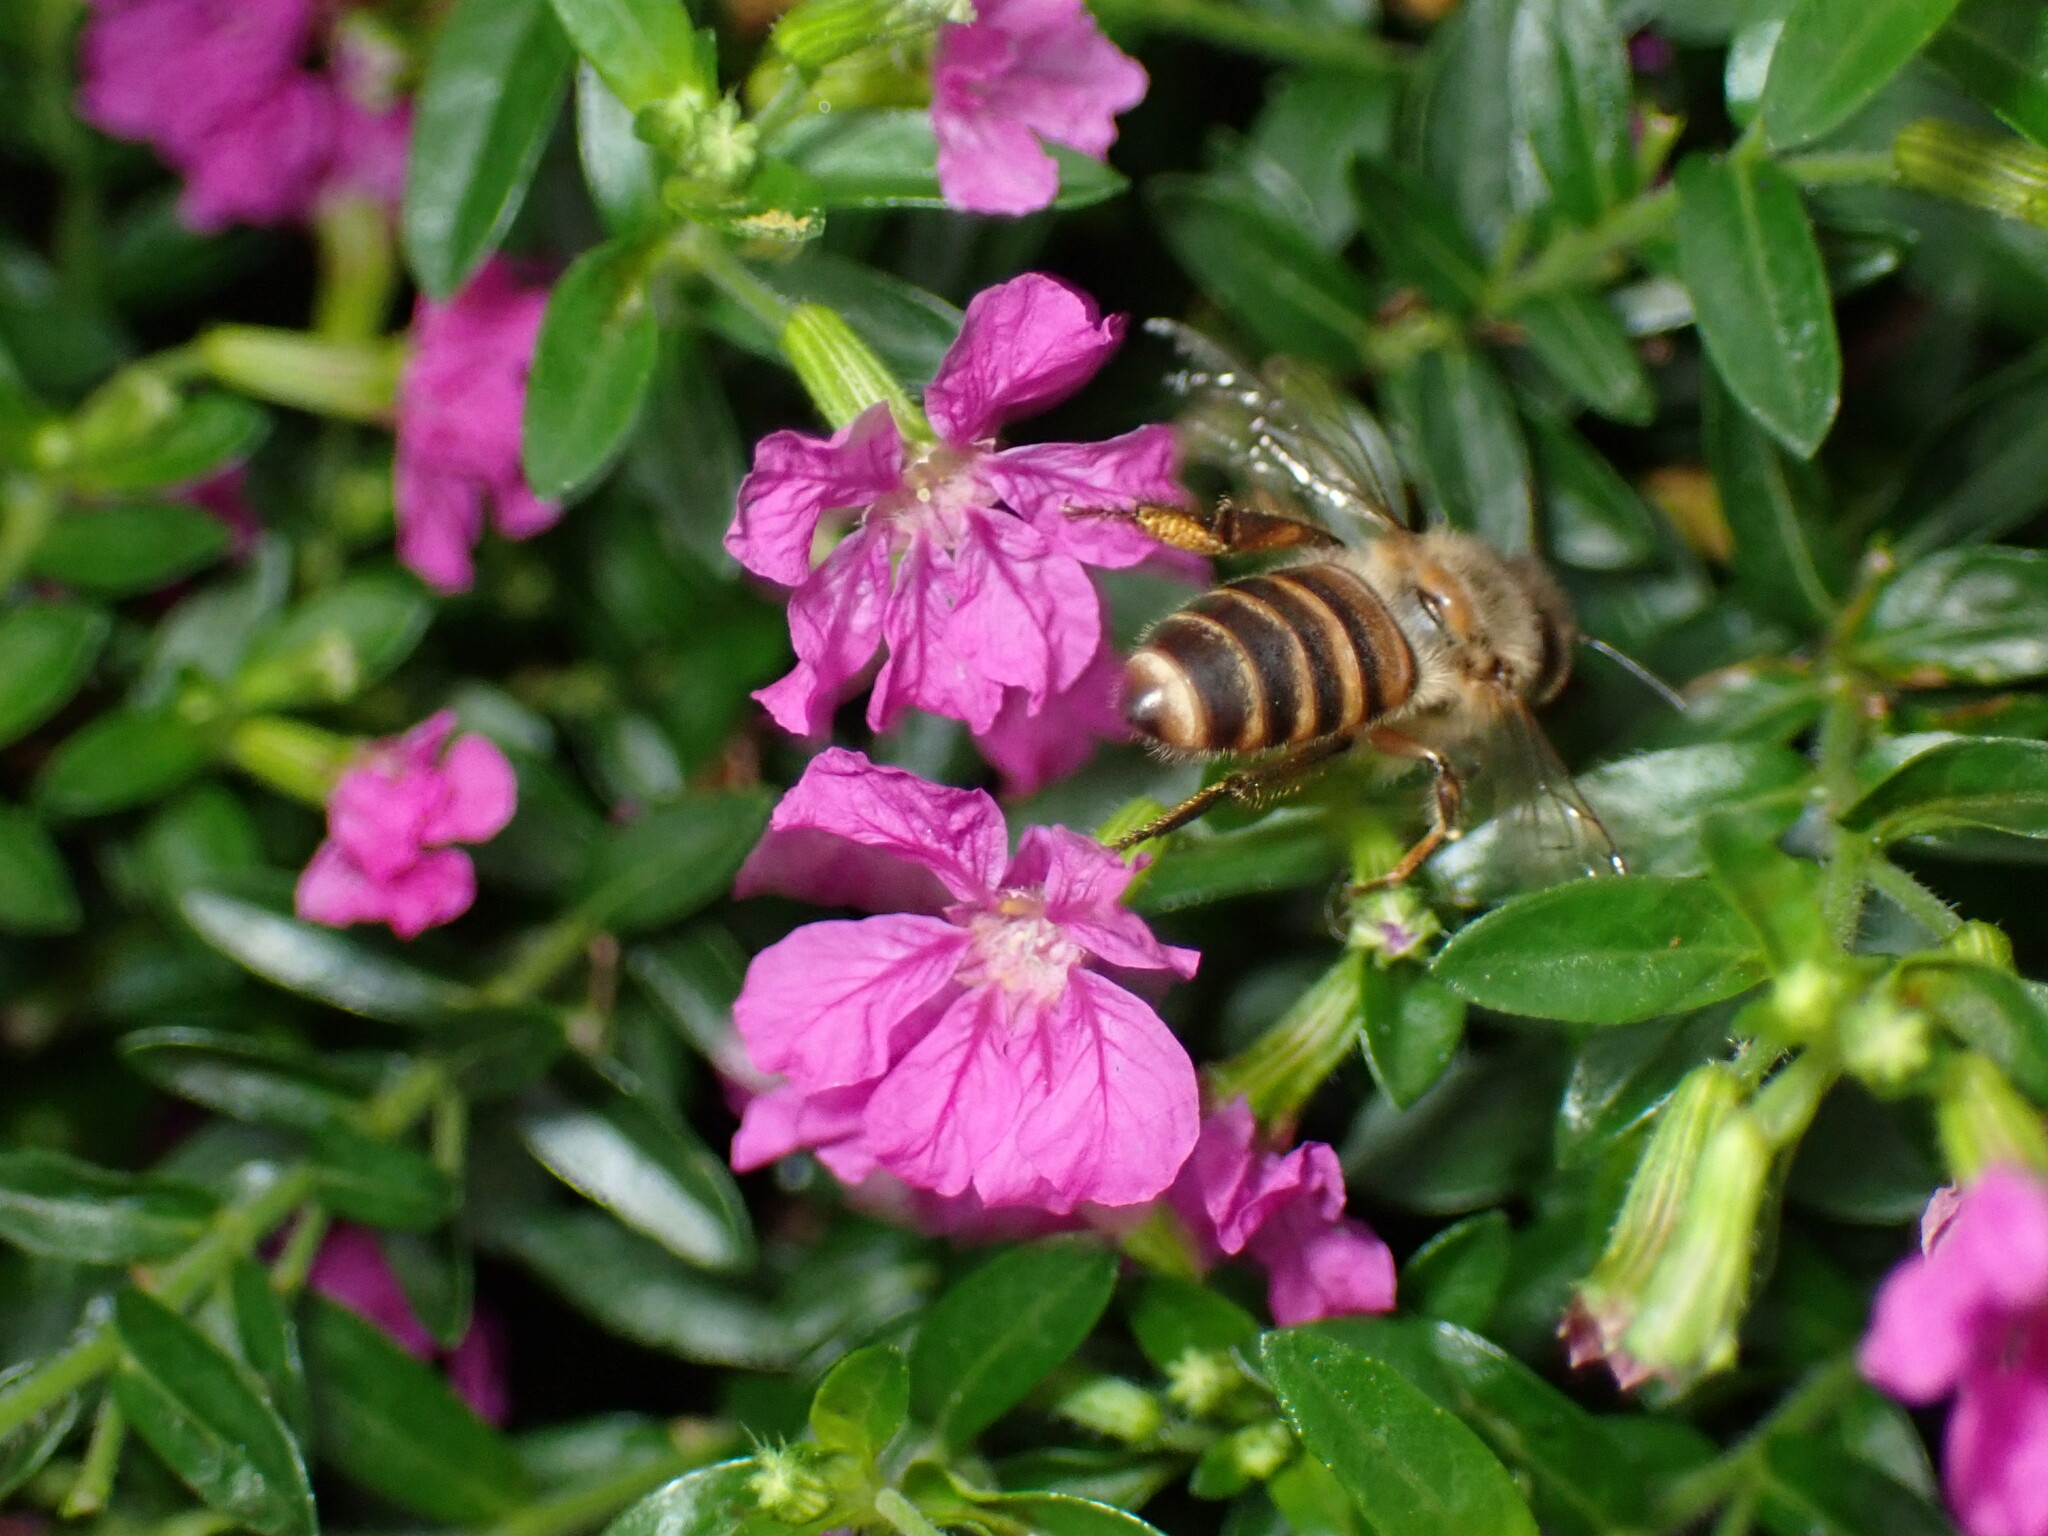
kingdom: Animalia
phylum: Arthropoda
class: Insecta
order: Hymenoptera
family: Apidae
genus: Apis
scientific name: Apis cerana
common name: Honey bee
